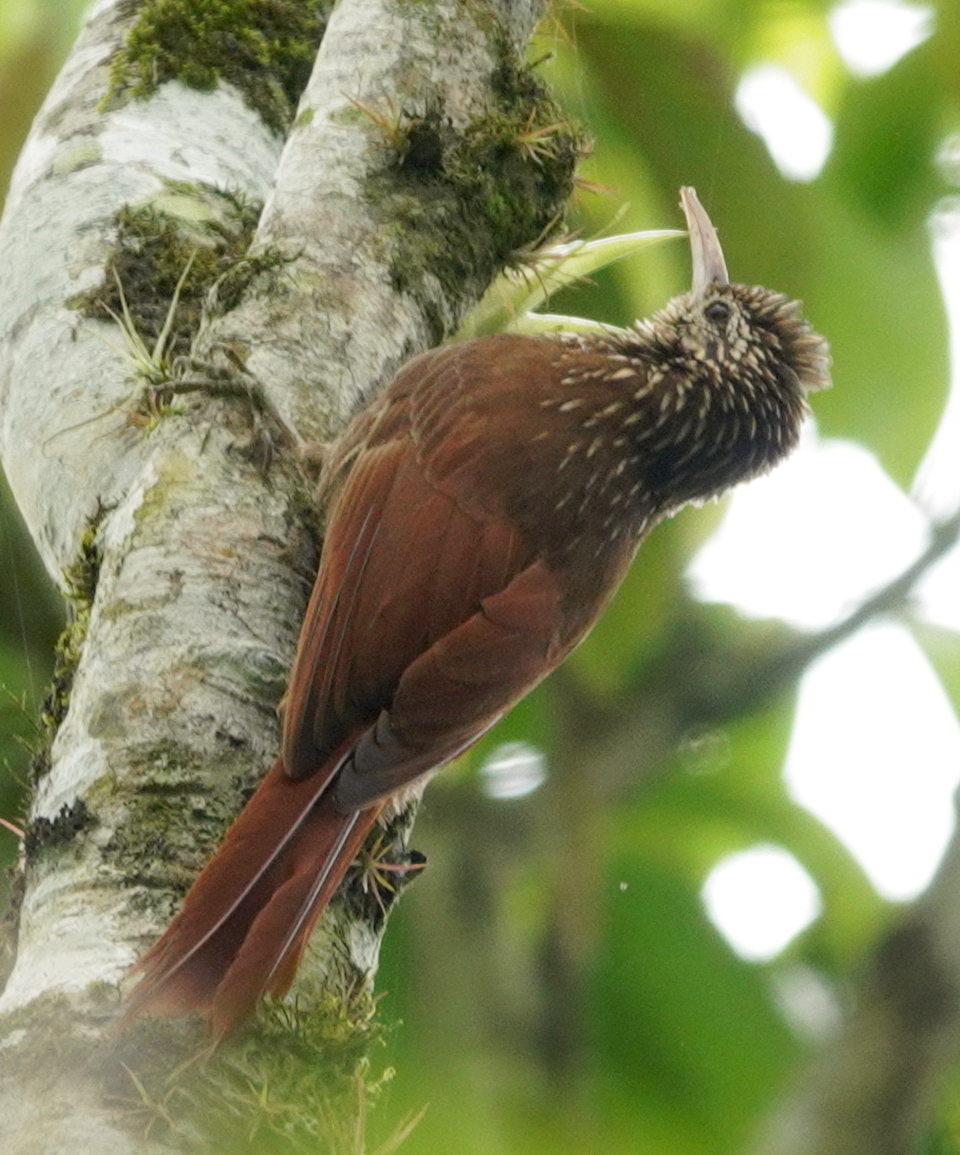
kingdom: Animalia
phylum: Chordata
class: Aves
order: Passeriformes
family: Furnariidae
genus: Lepidocolaptes
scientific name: Lepidocolaptes souleyetii
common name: Streak-headed woodcreeper
